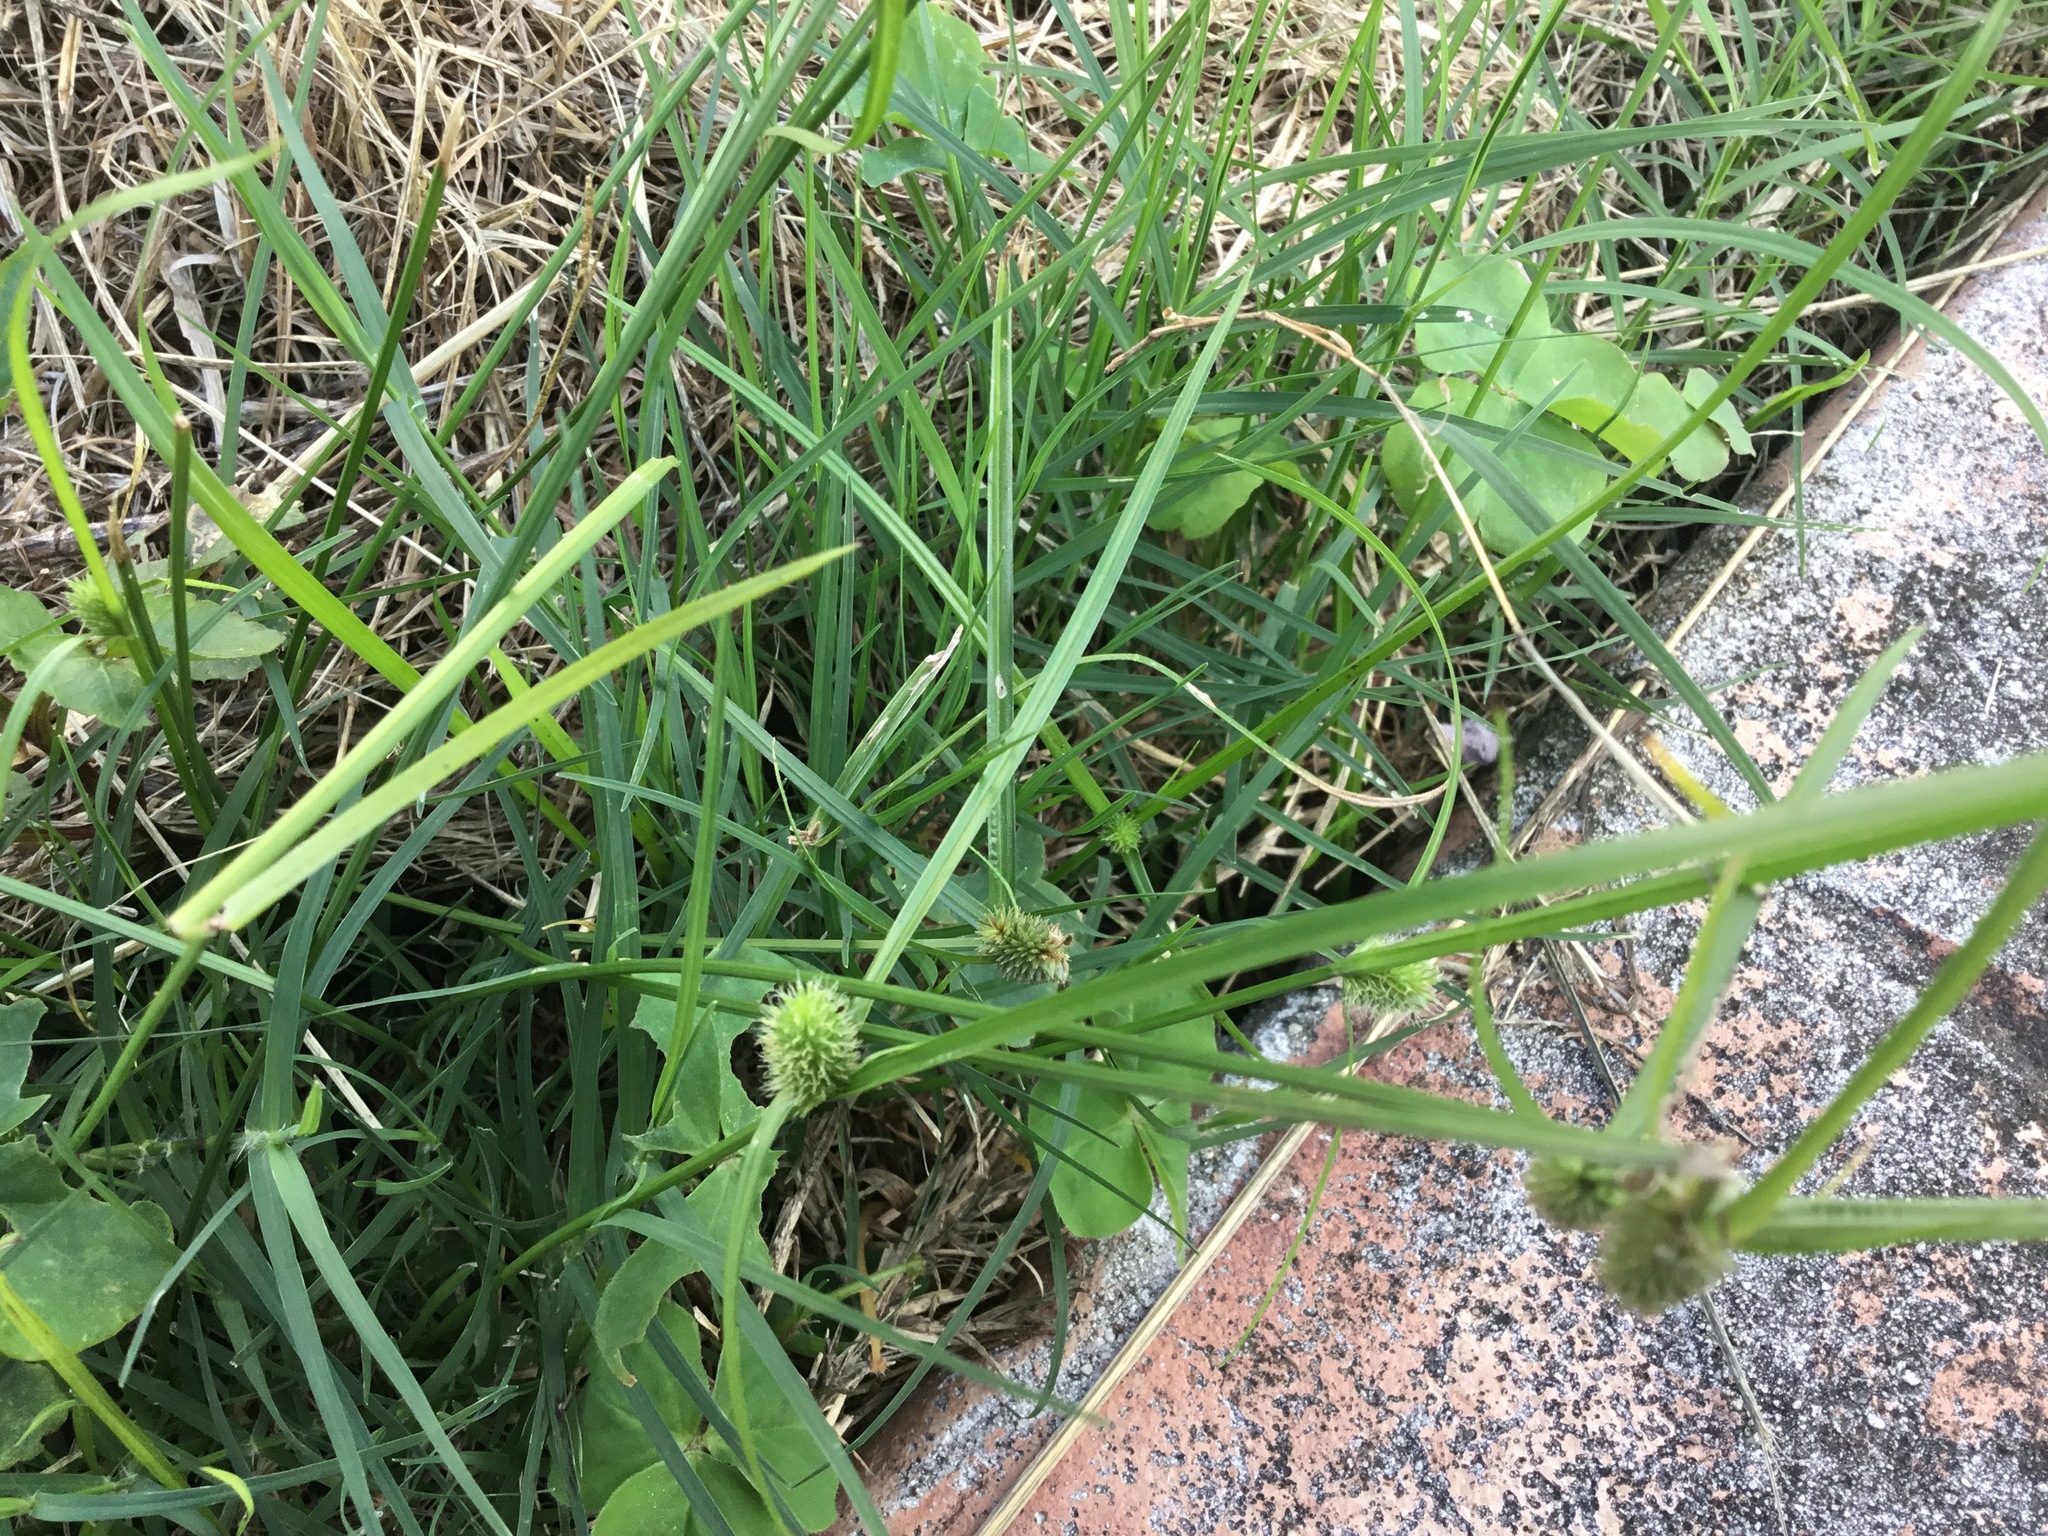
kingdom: Plantae
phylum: Tracheophyta
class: Liliopsida
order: Poales
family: Cyperaceae
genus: Cyperus
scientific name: Cyperus brevifolius
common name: Globe kyllinga
